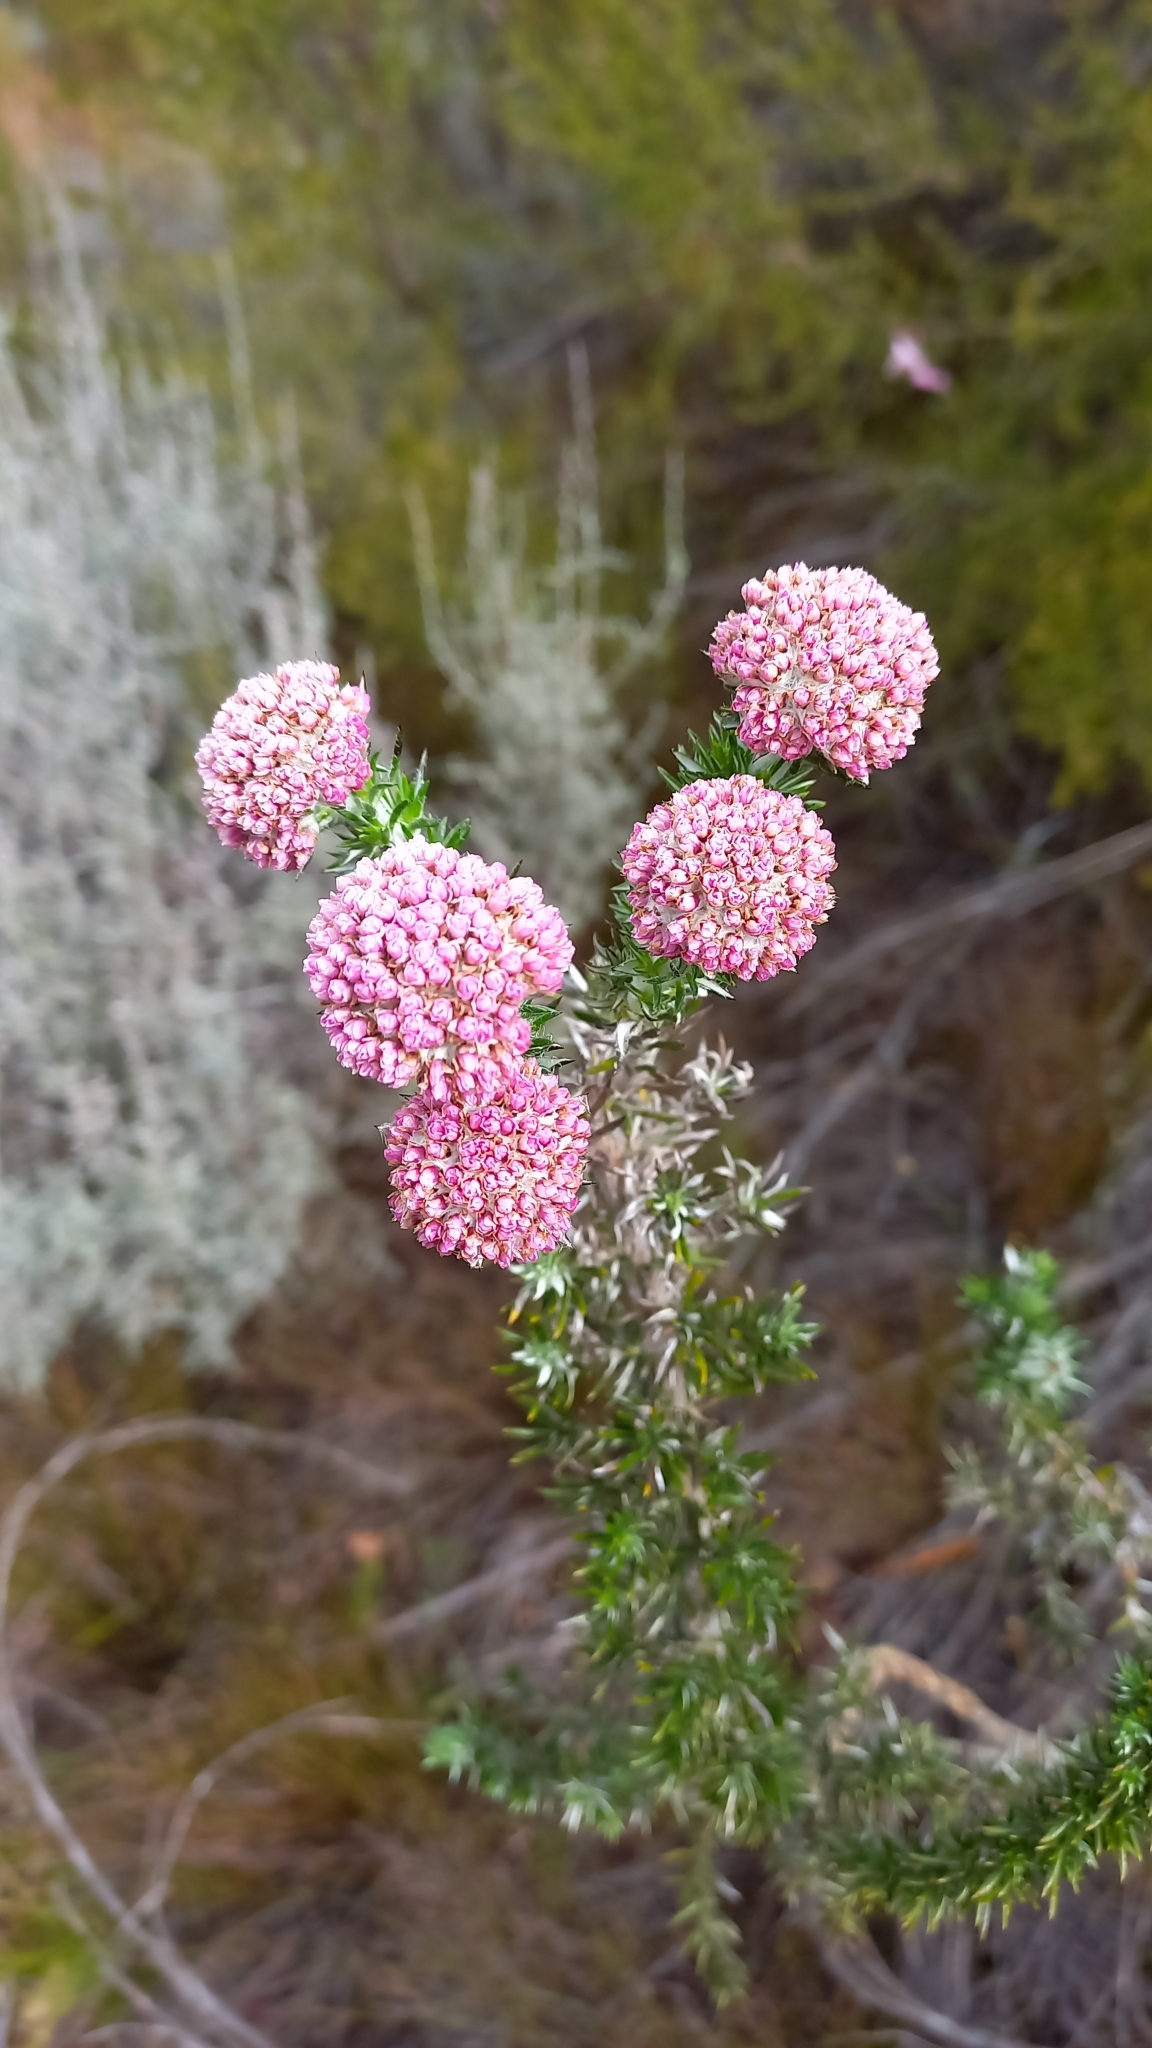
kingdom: Plantae
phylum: Tracheophyta
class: Magnoliopsida
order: Asterales
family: Asteraceae
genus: Metalasia
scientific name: Metalasia muraltiifolia
